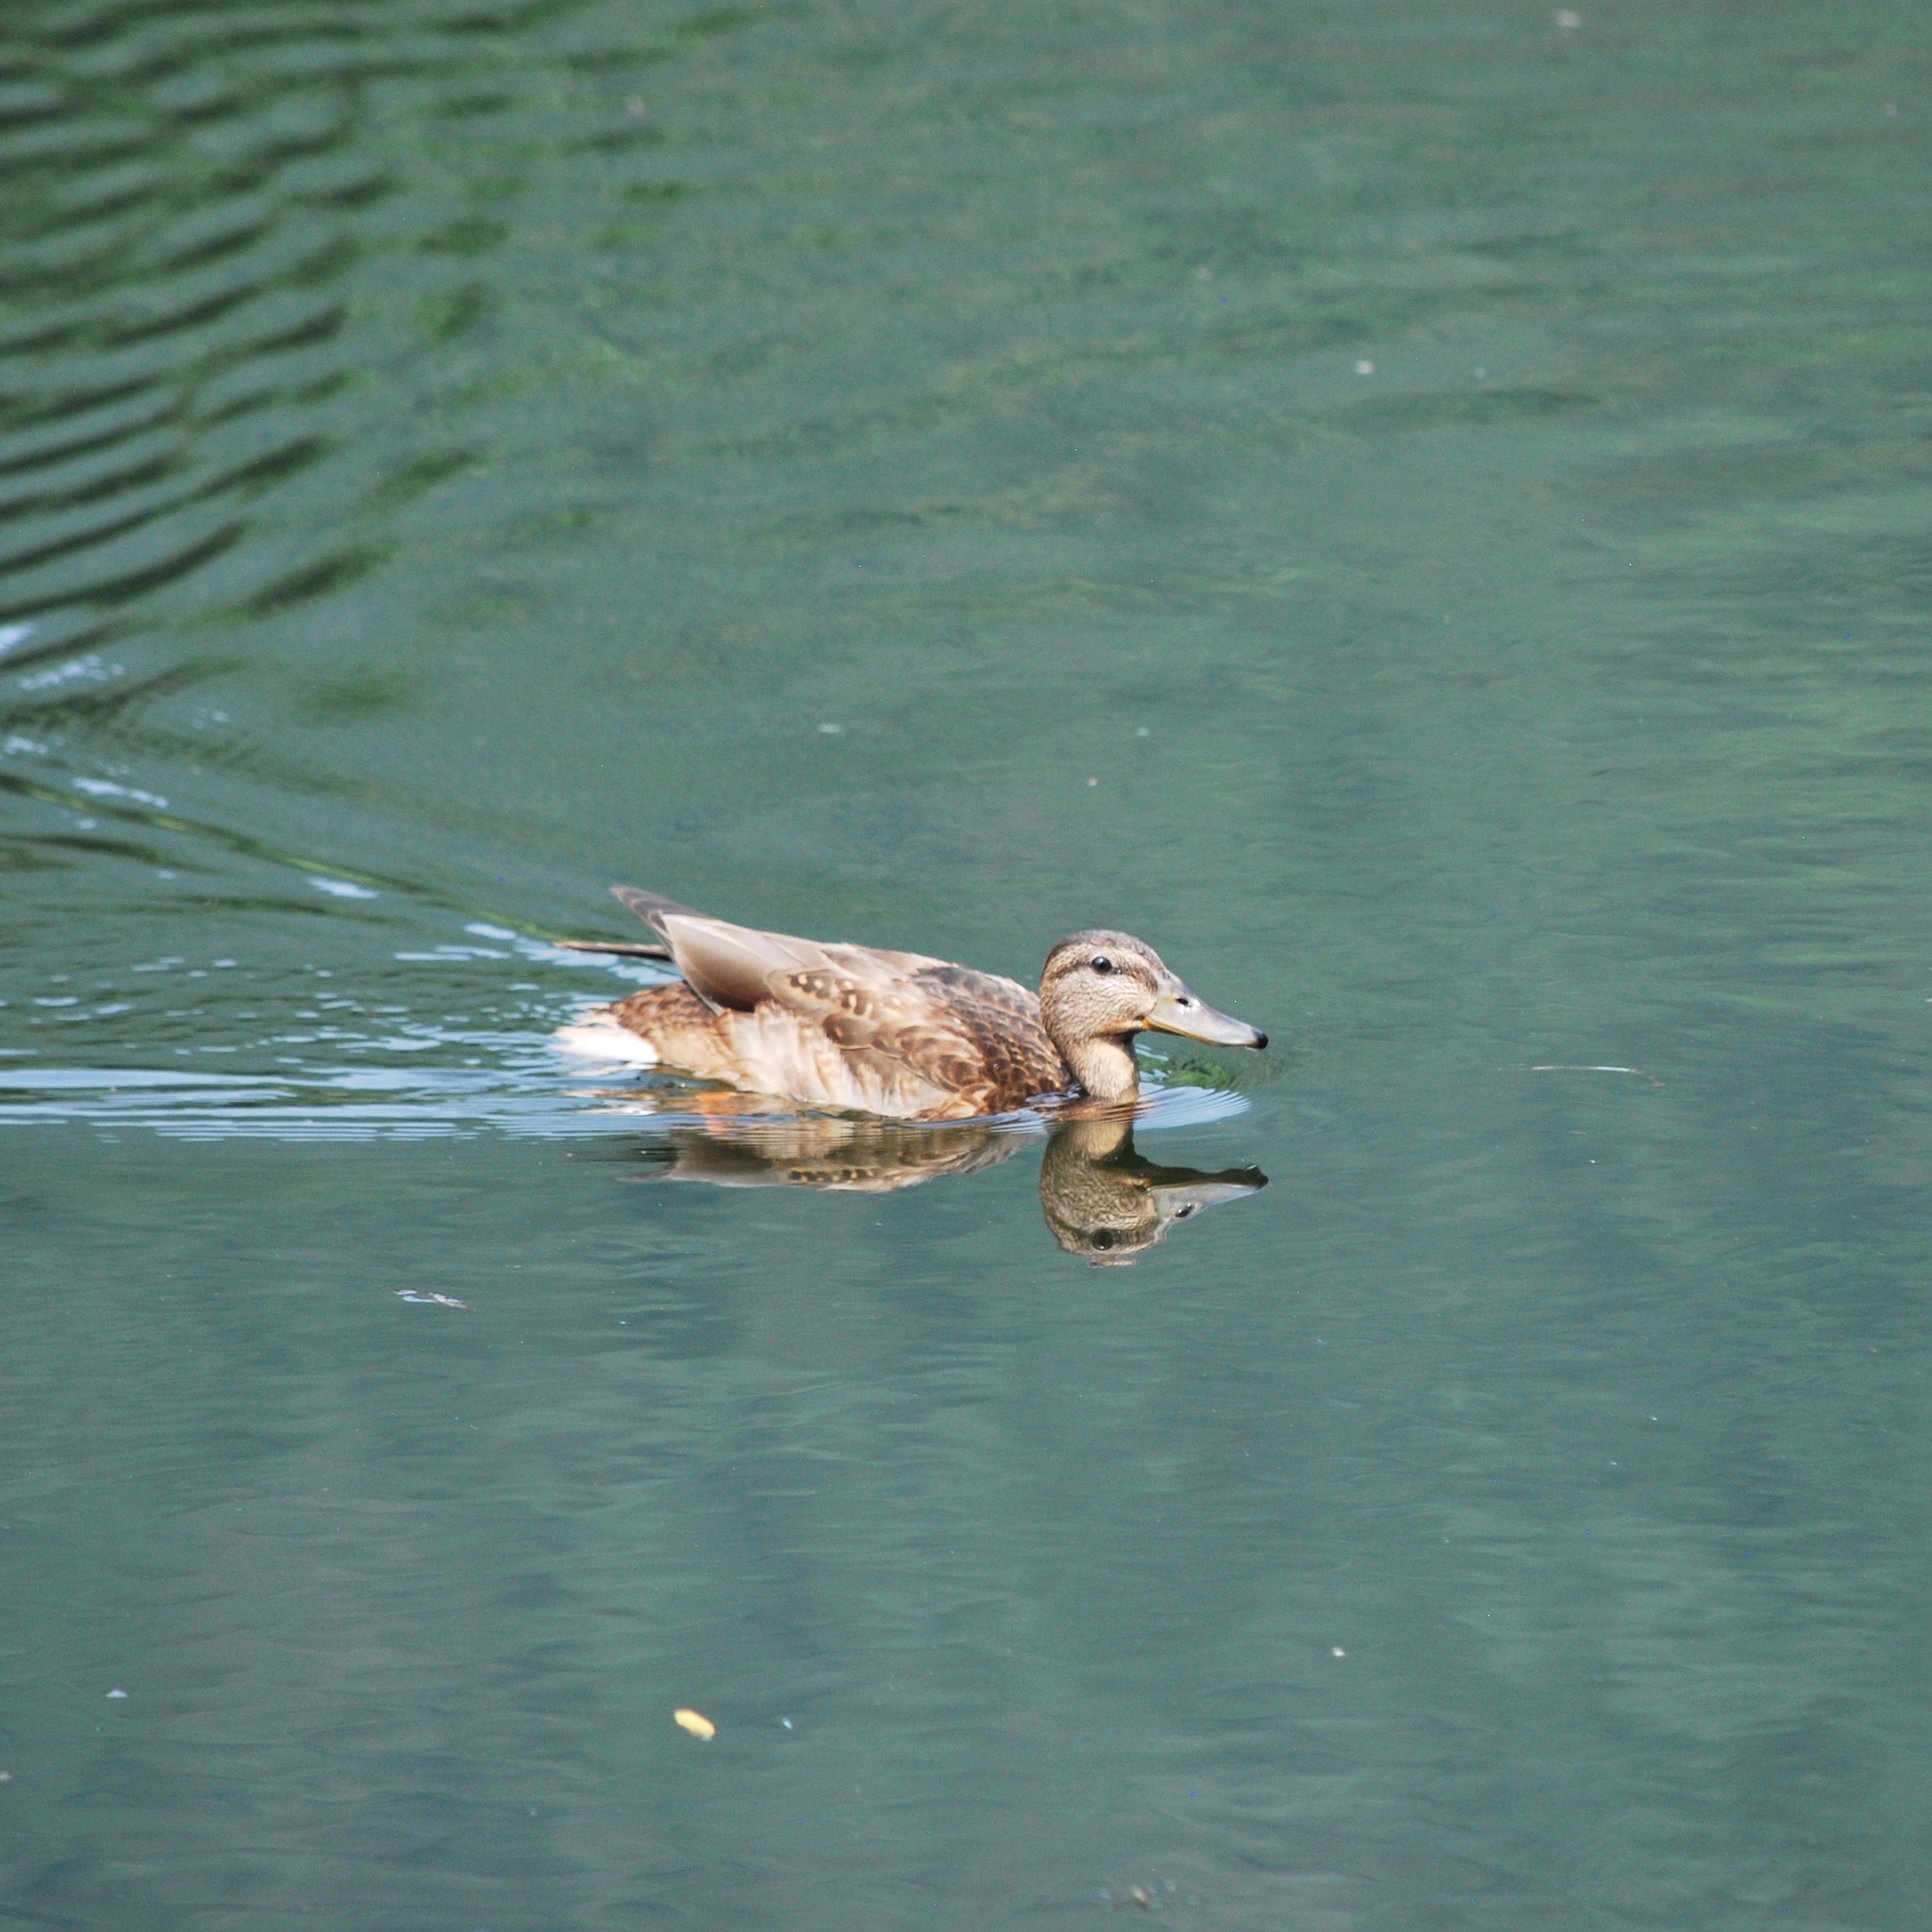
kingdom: Animalia
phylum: Chordata
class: Aves
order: Anseriformes
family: Anatidae
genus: Anas
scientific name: Anas platyrhynchos
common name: Mallard
